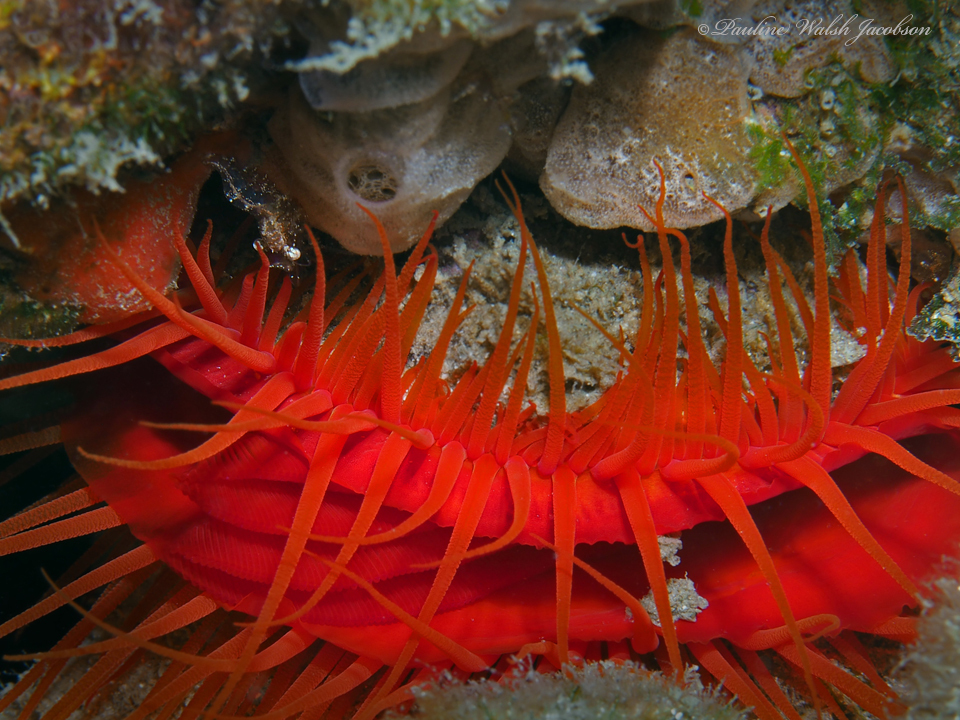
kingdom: Animalia
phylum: Mollusca
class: Bivalvia
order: Limida
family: Limidae
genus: Ctenoides
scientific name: Ctenoides scaber
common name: Rough fileclam
